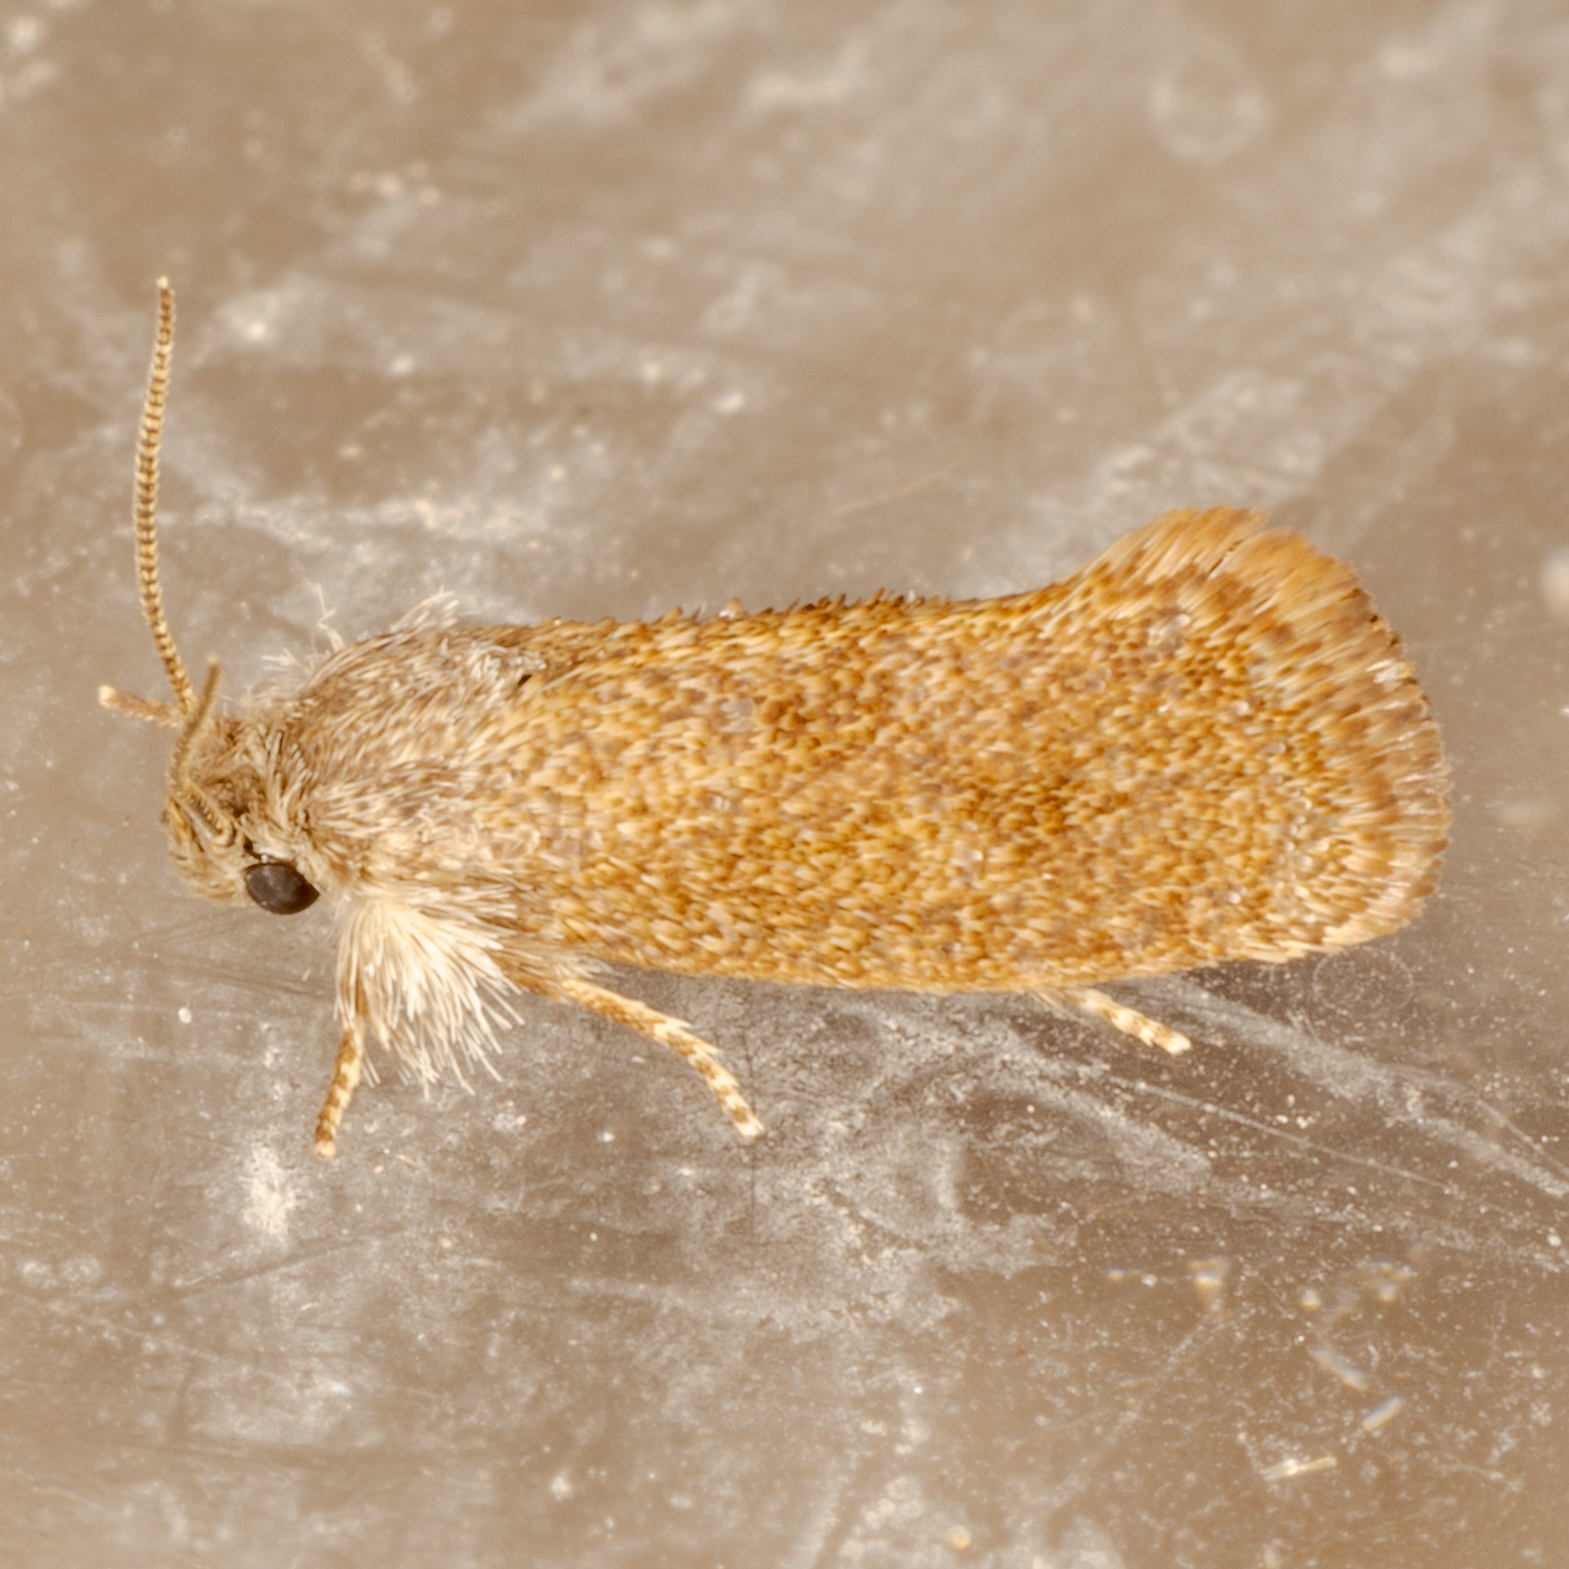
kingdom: Animalia
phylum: Arthropoda
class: Insecta
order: Lepidoptera
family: Tineidae
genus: Acrolophus
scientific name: Acrolophus heppneri
